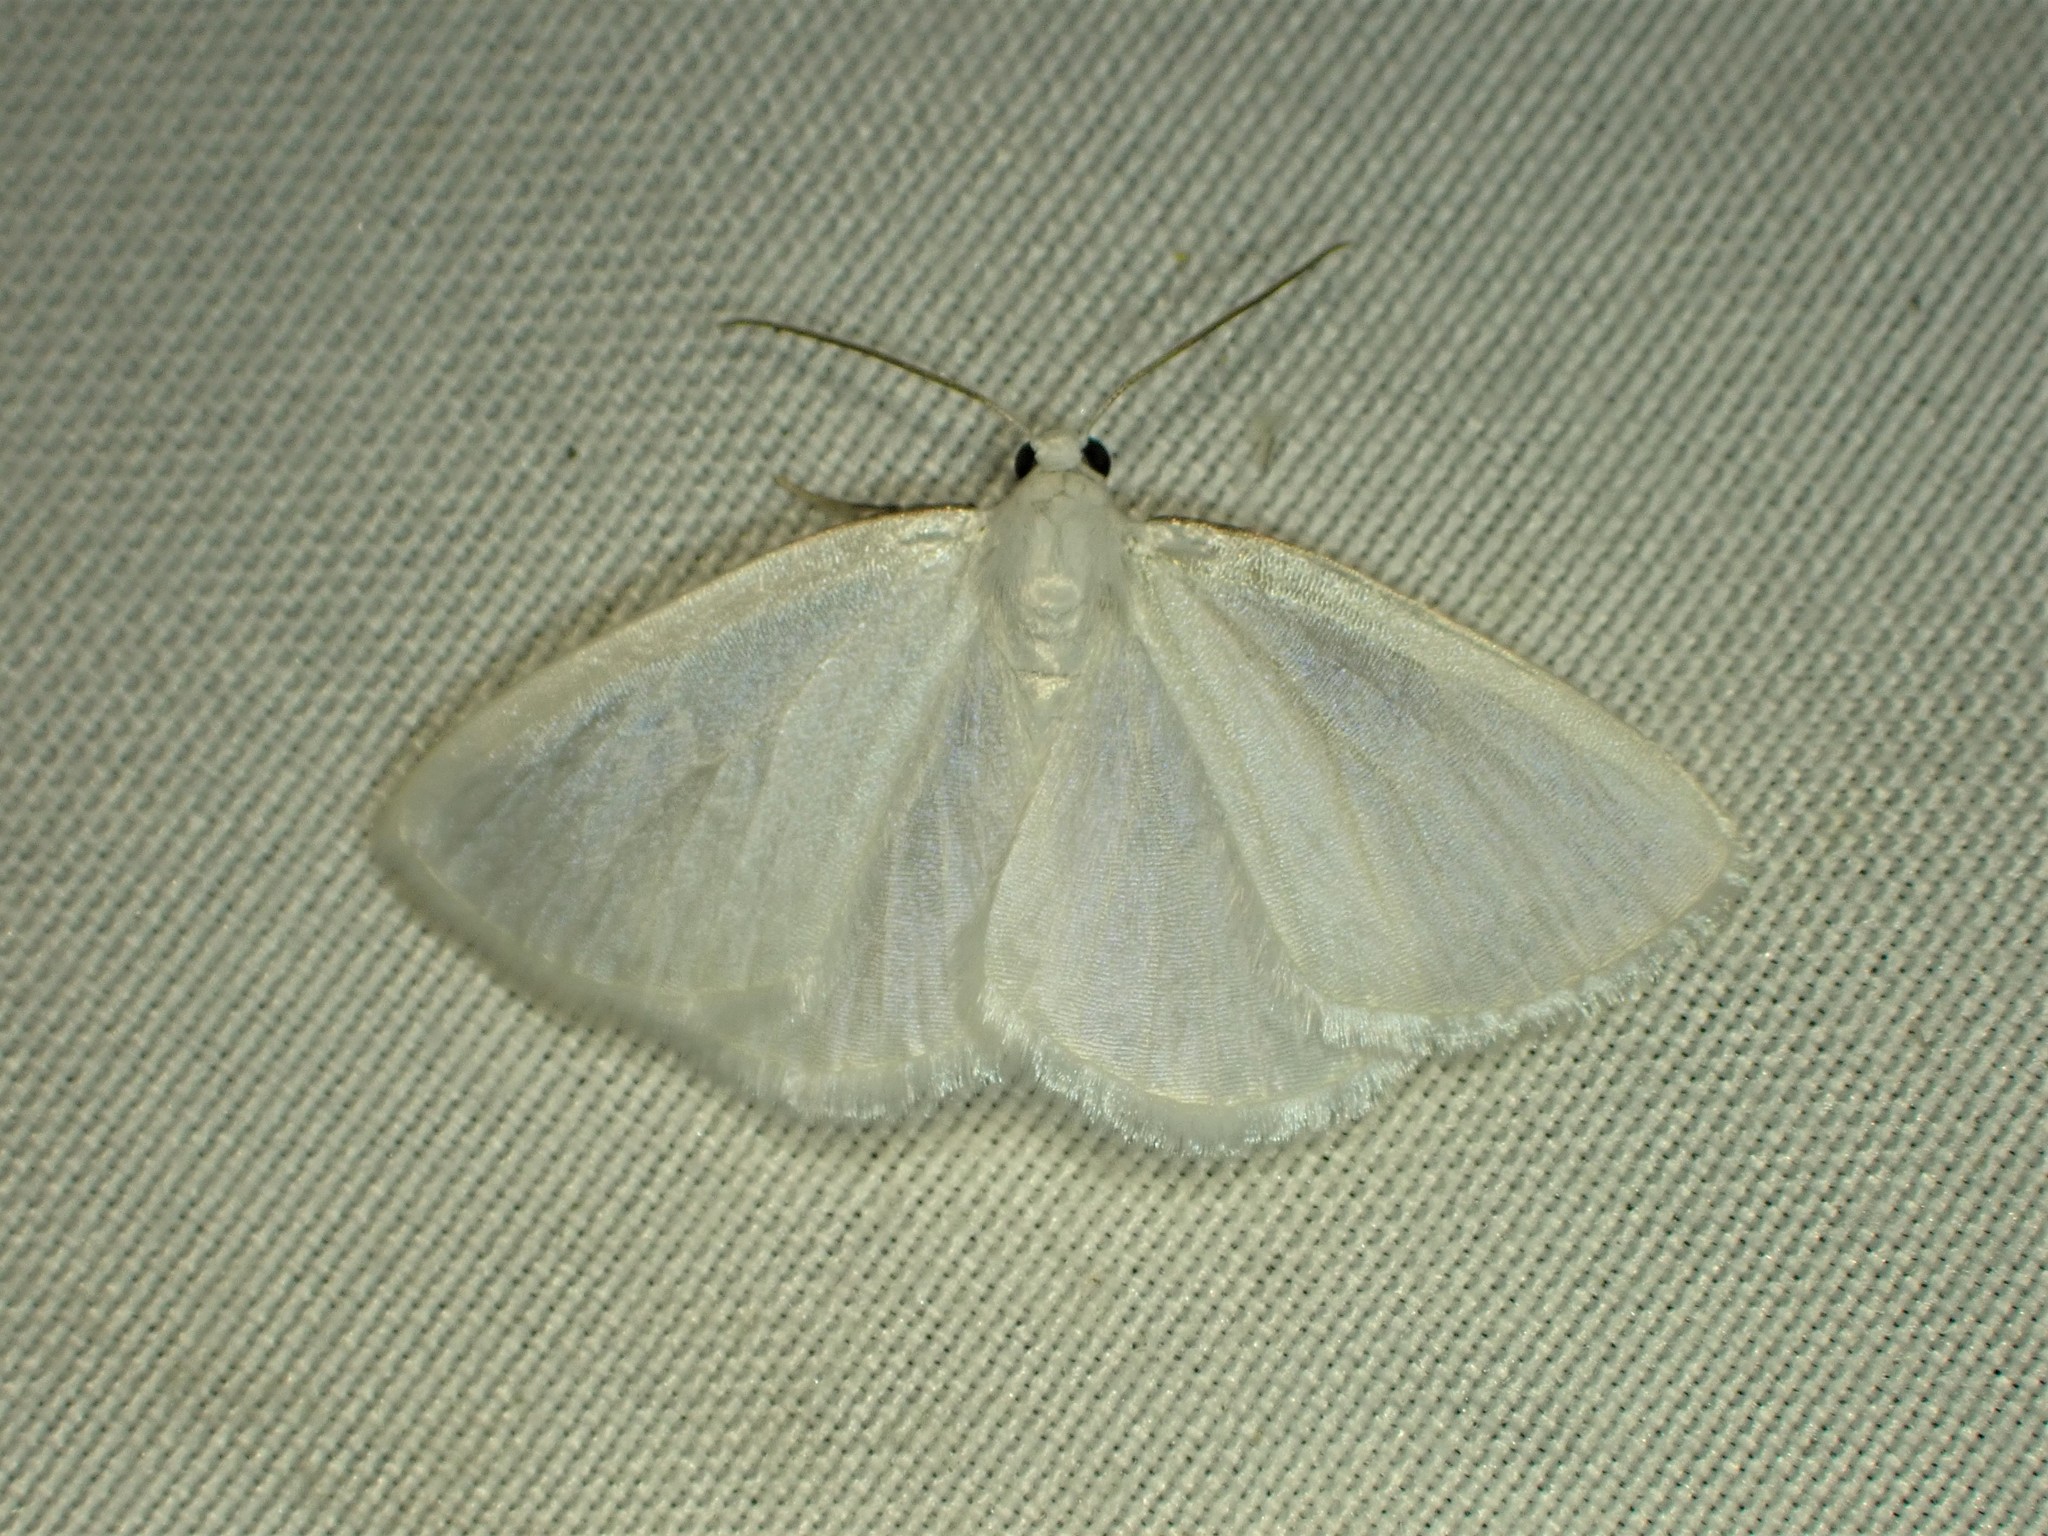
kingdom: Animalia
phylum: Arthropoda
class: Insecta
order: Lepidoptera
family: Geometridae
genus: Lomographa
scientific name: Lomographa vestaliata
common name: White spring moth
